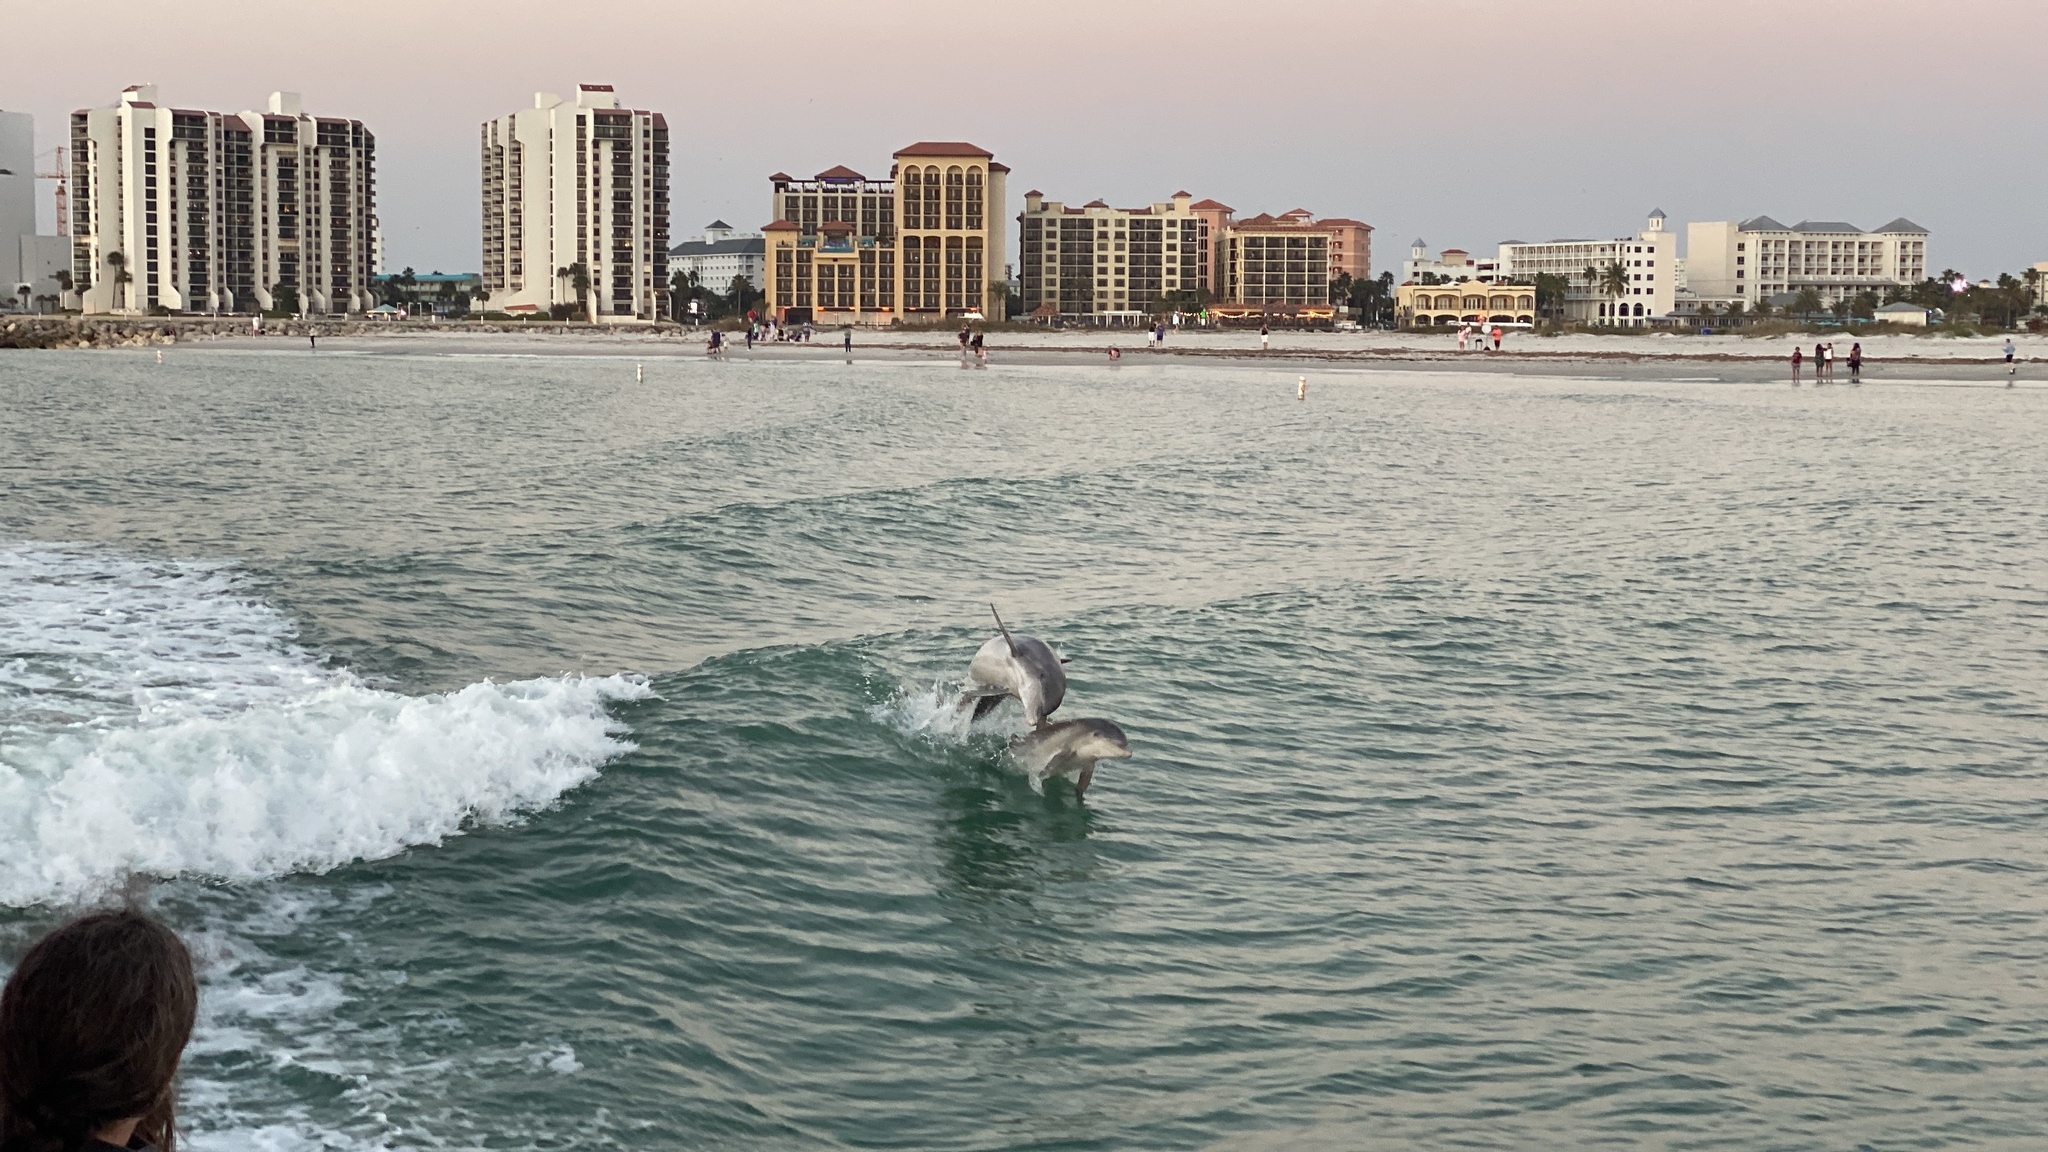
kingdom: Animalia
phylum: Chordata
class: Mammalia
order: Cetacea
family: Delphinidae
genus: Tursiops
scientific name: Tursiops truncatus
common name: Bottlenose dolphin
